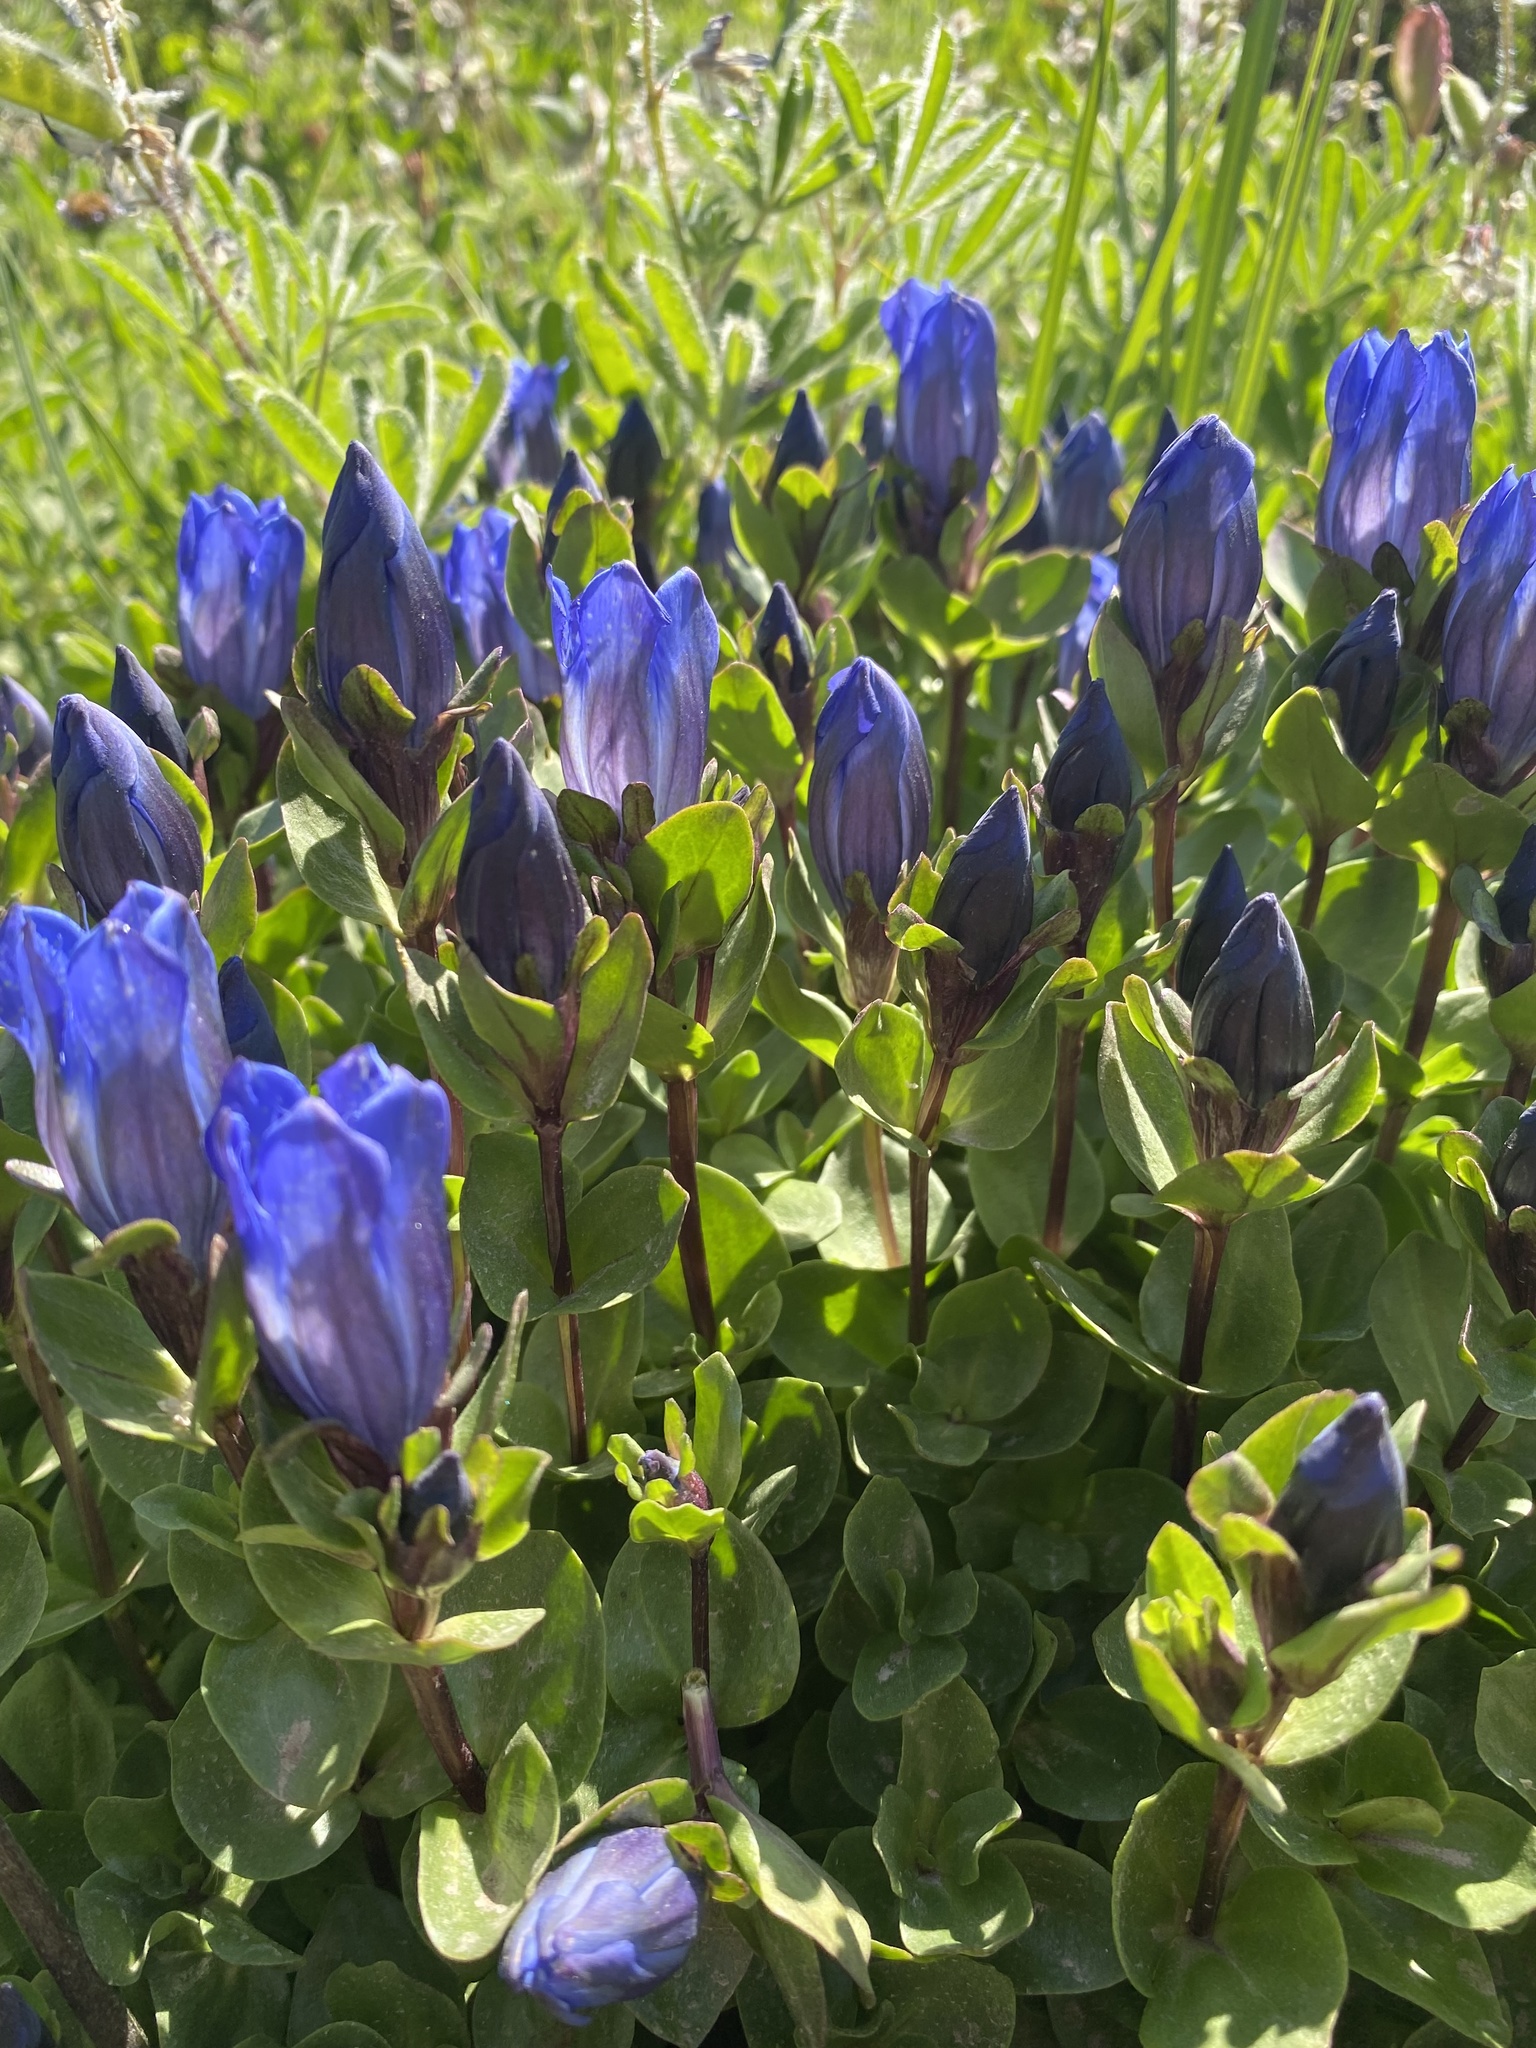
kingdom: Plantae
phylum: Tracheophyta
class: Magnoliopsida
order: Gentianales
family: Gentianaceae
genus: Gentiana
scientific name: Gentiana calycosa
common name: Rainier pleated gentian
